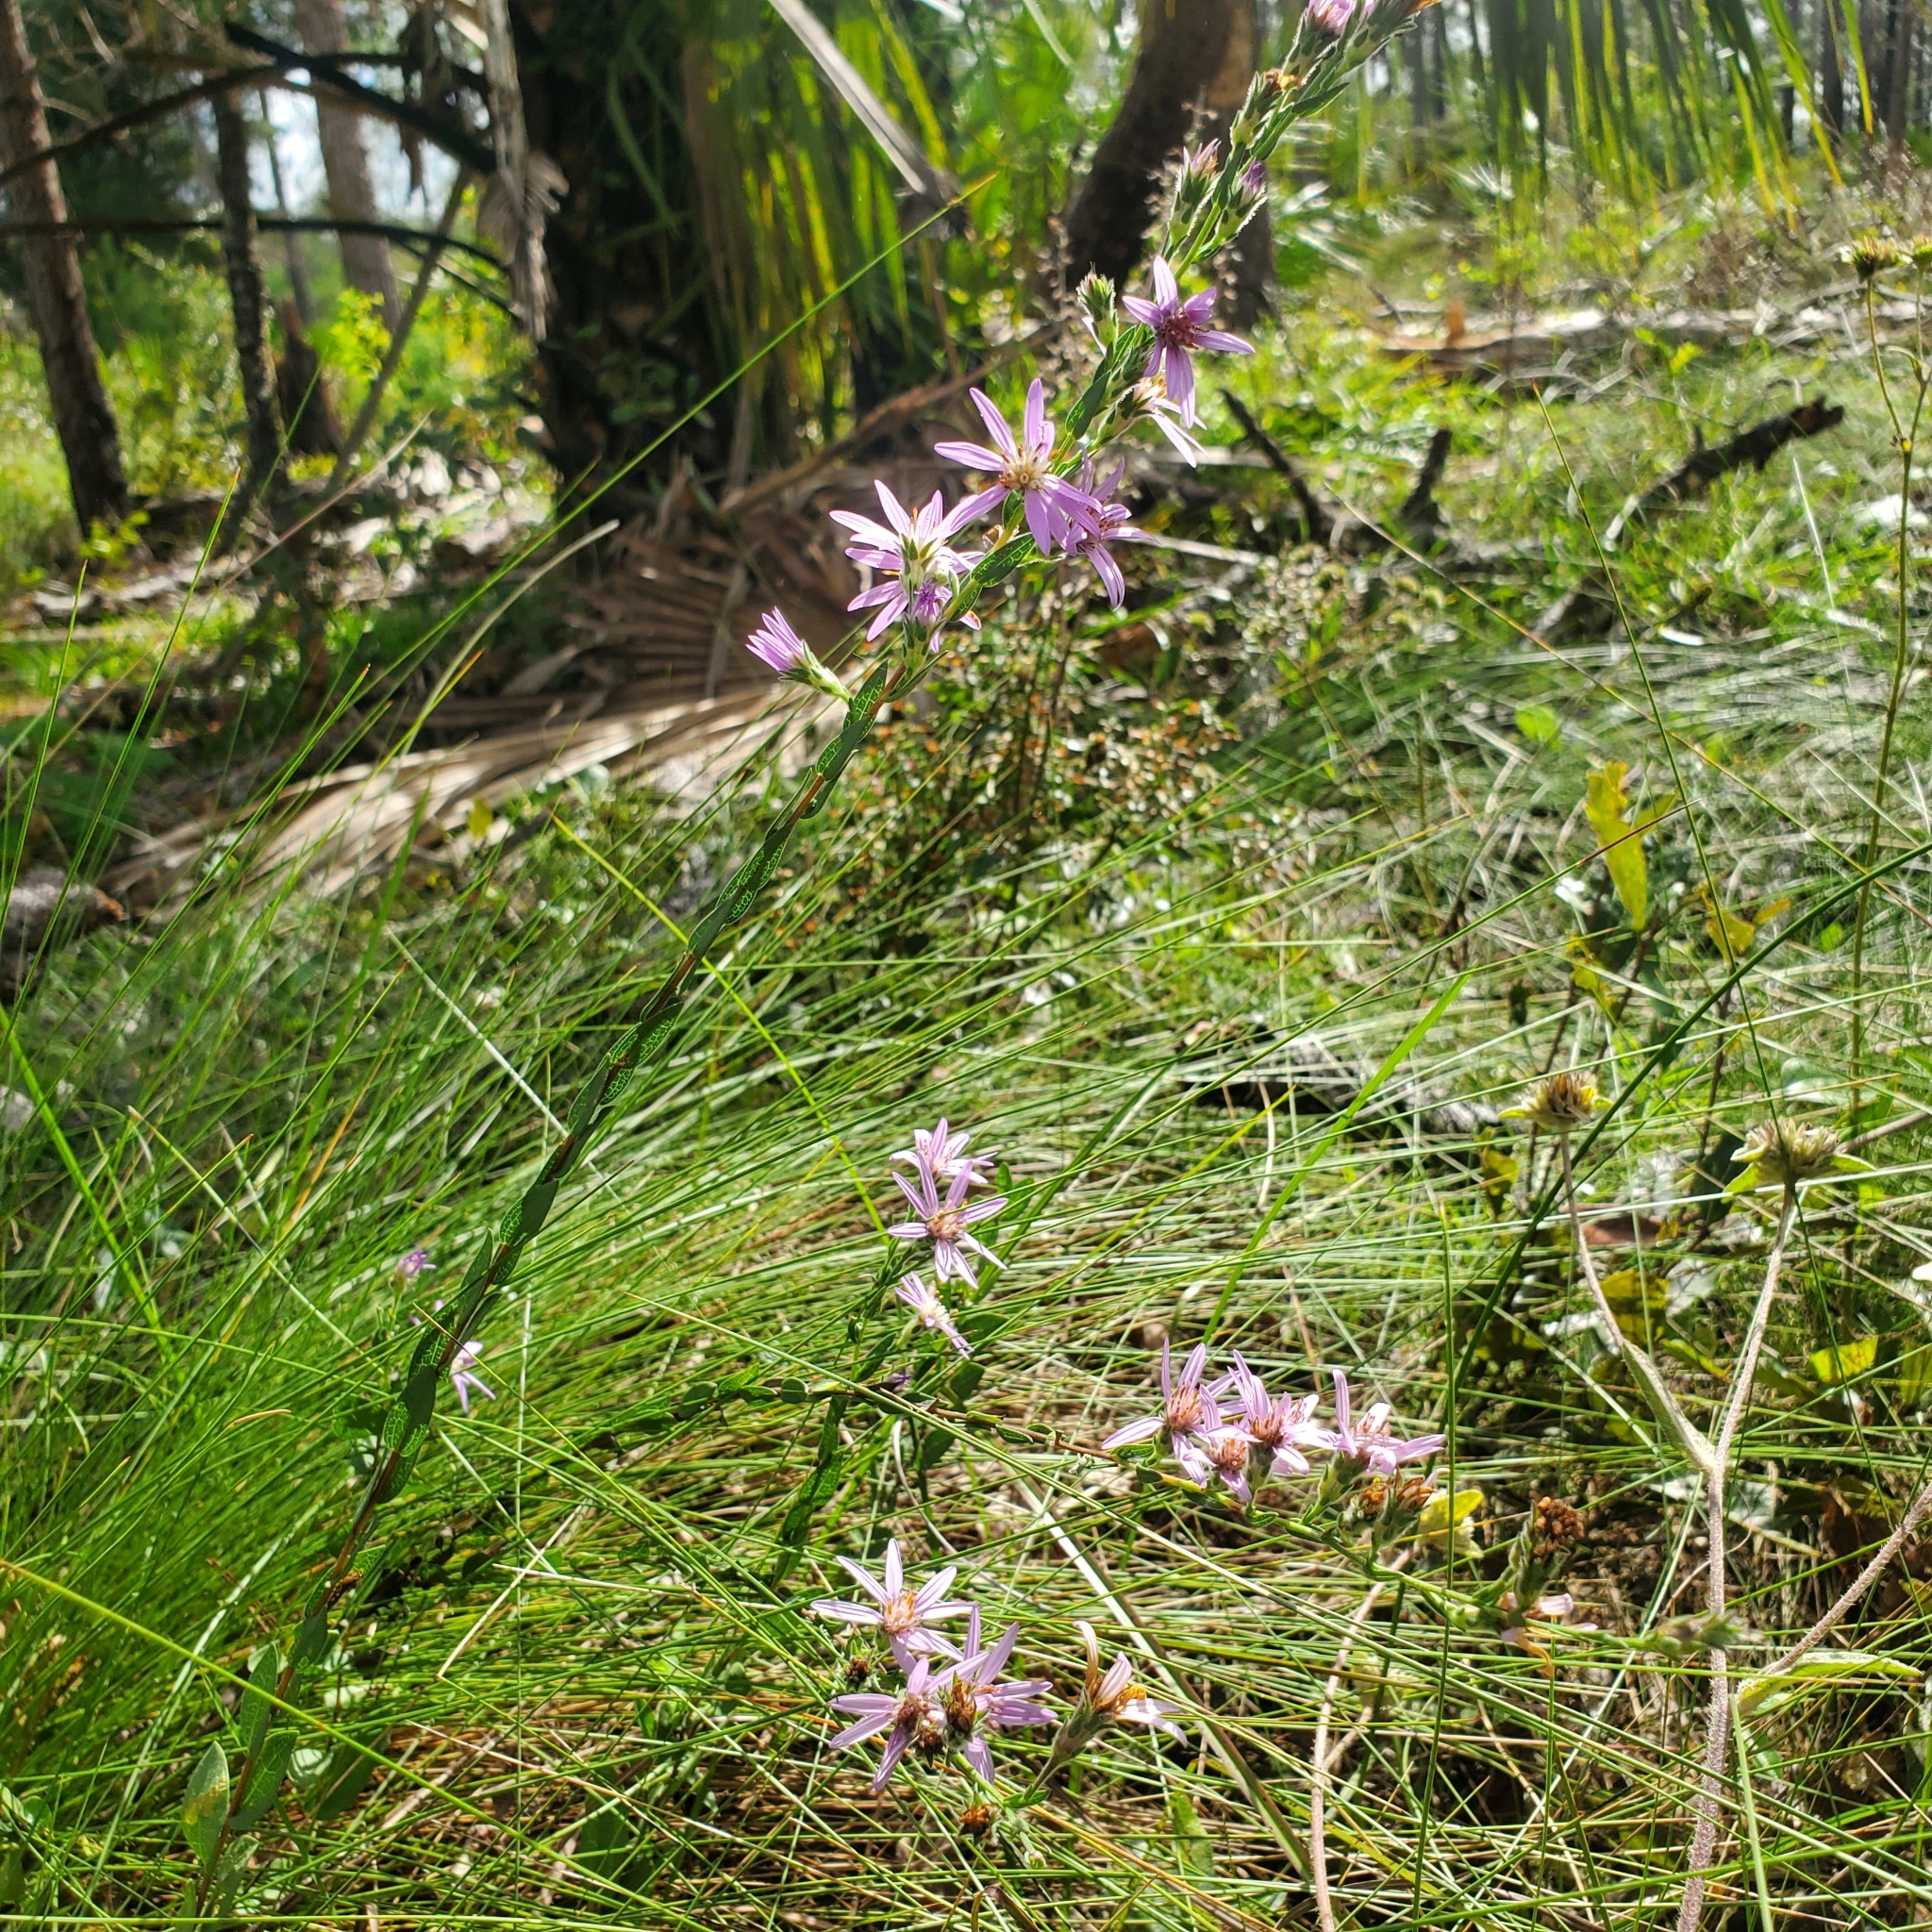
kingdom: Plantae
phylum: Tracheophyta
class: Magnoliopsida
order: Asterales
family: Asteraceae
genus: Symphyotrichum
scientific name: Symphyotrichum concolor
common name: Eastern silver aster
